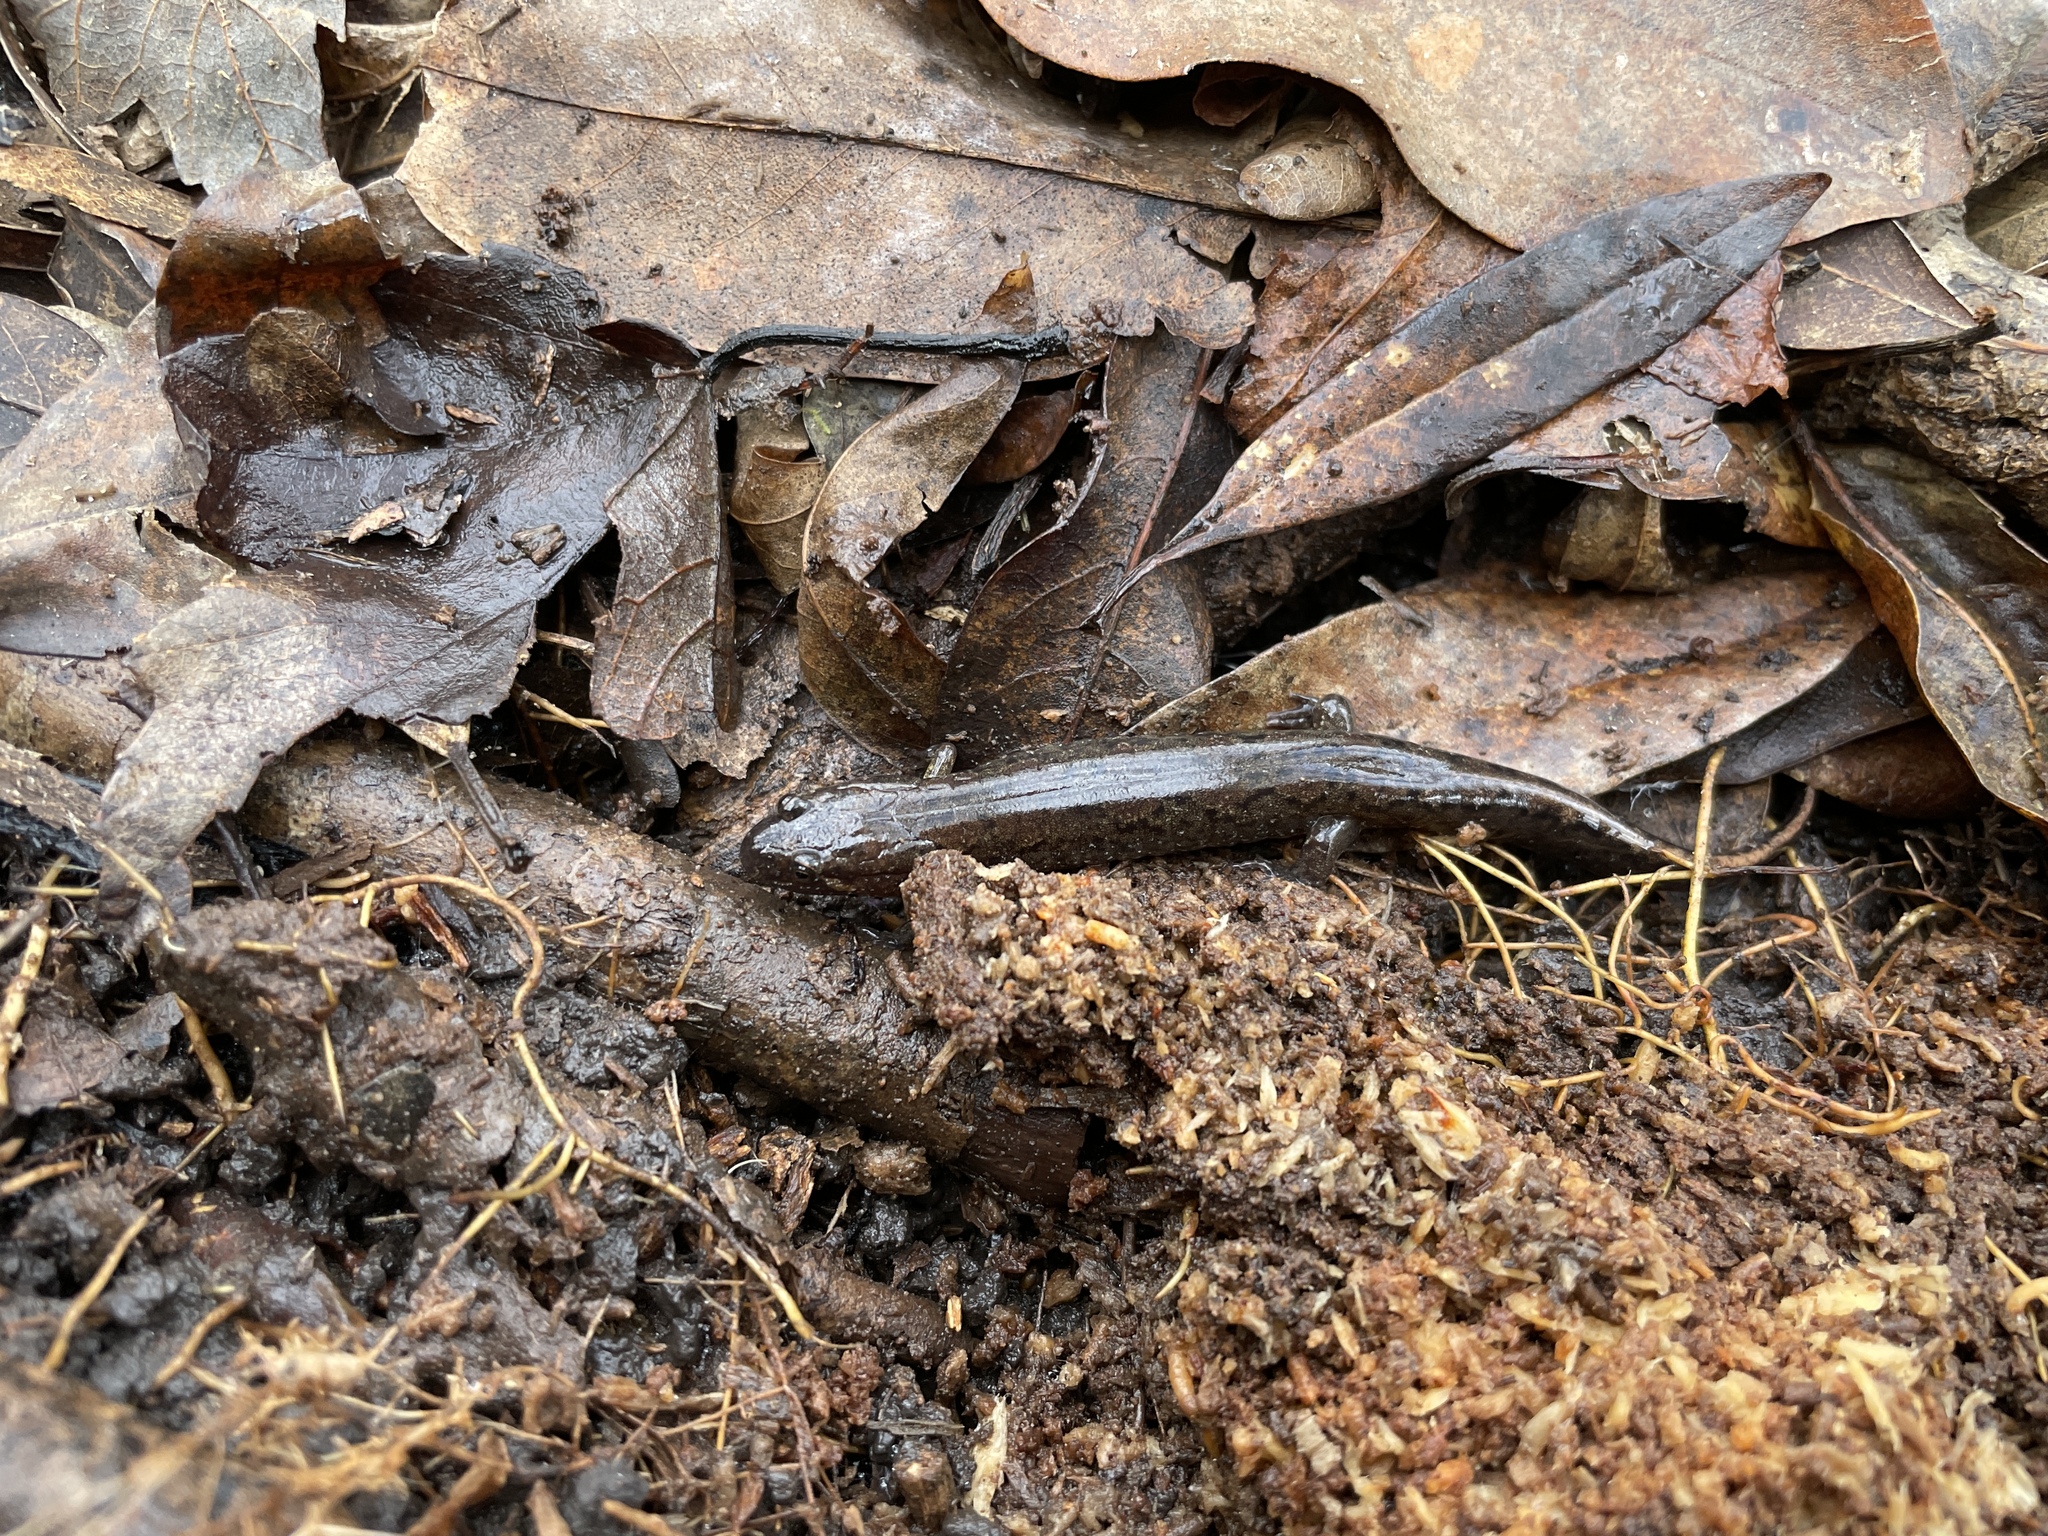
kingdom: Animalia
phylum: Chordata
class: Amphibia
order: Caudata
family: Plethodontidae
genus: Desmognathus
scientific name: Desmognathus conanti
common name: Spotted dusky salamander
